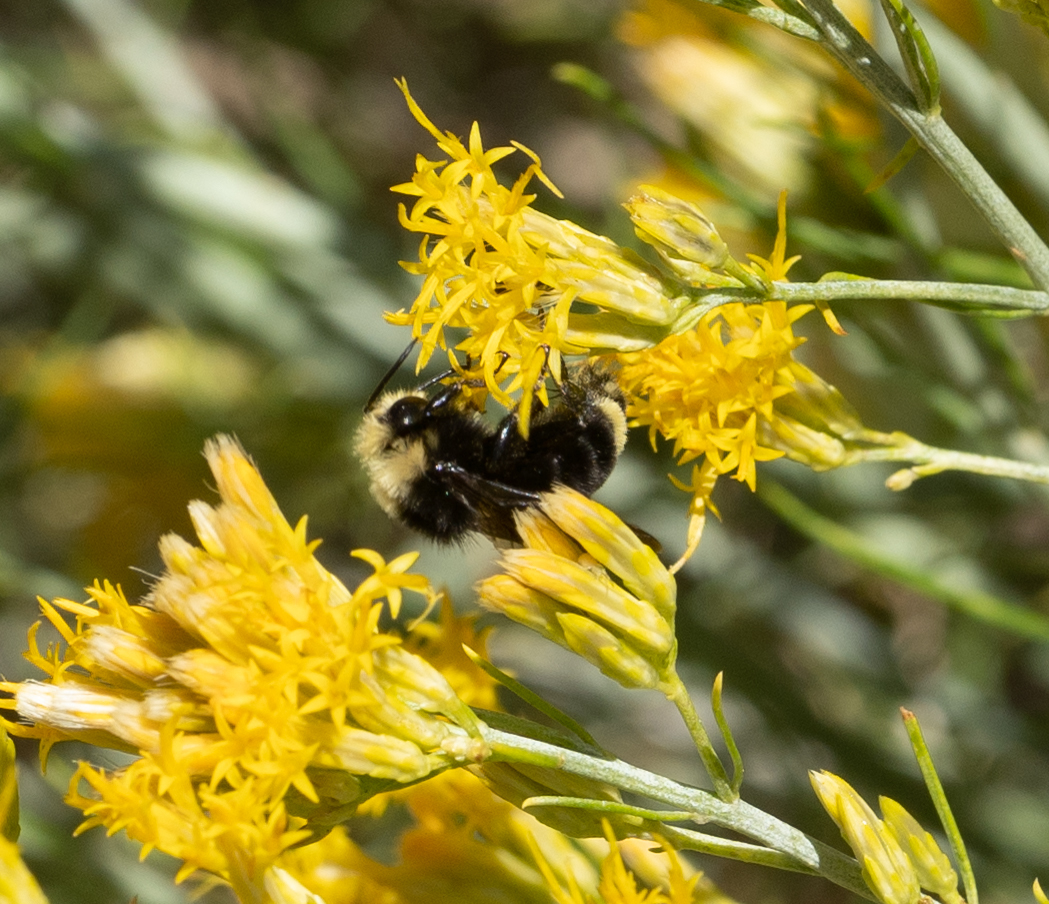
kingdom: Animalia
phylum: Arthropoda
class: Insecta
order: Hymenoptera
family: Apidae
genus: Bombus
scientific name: Bombus vosnesenskii
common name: Vosnesensky bumble bee
